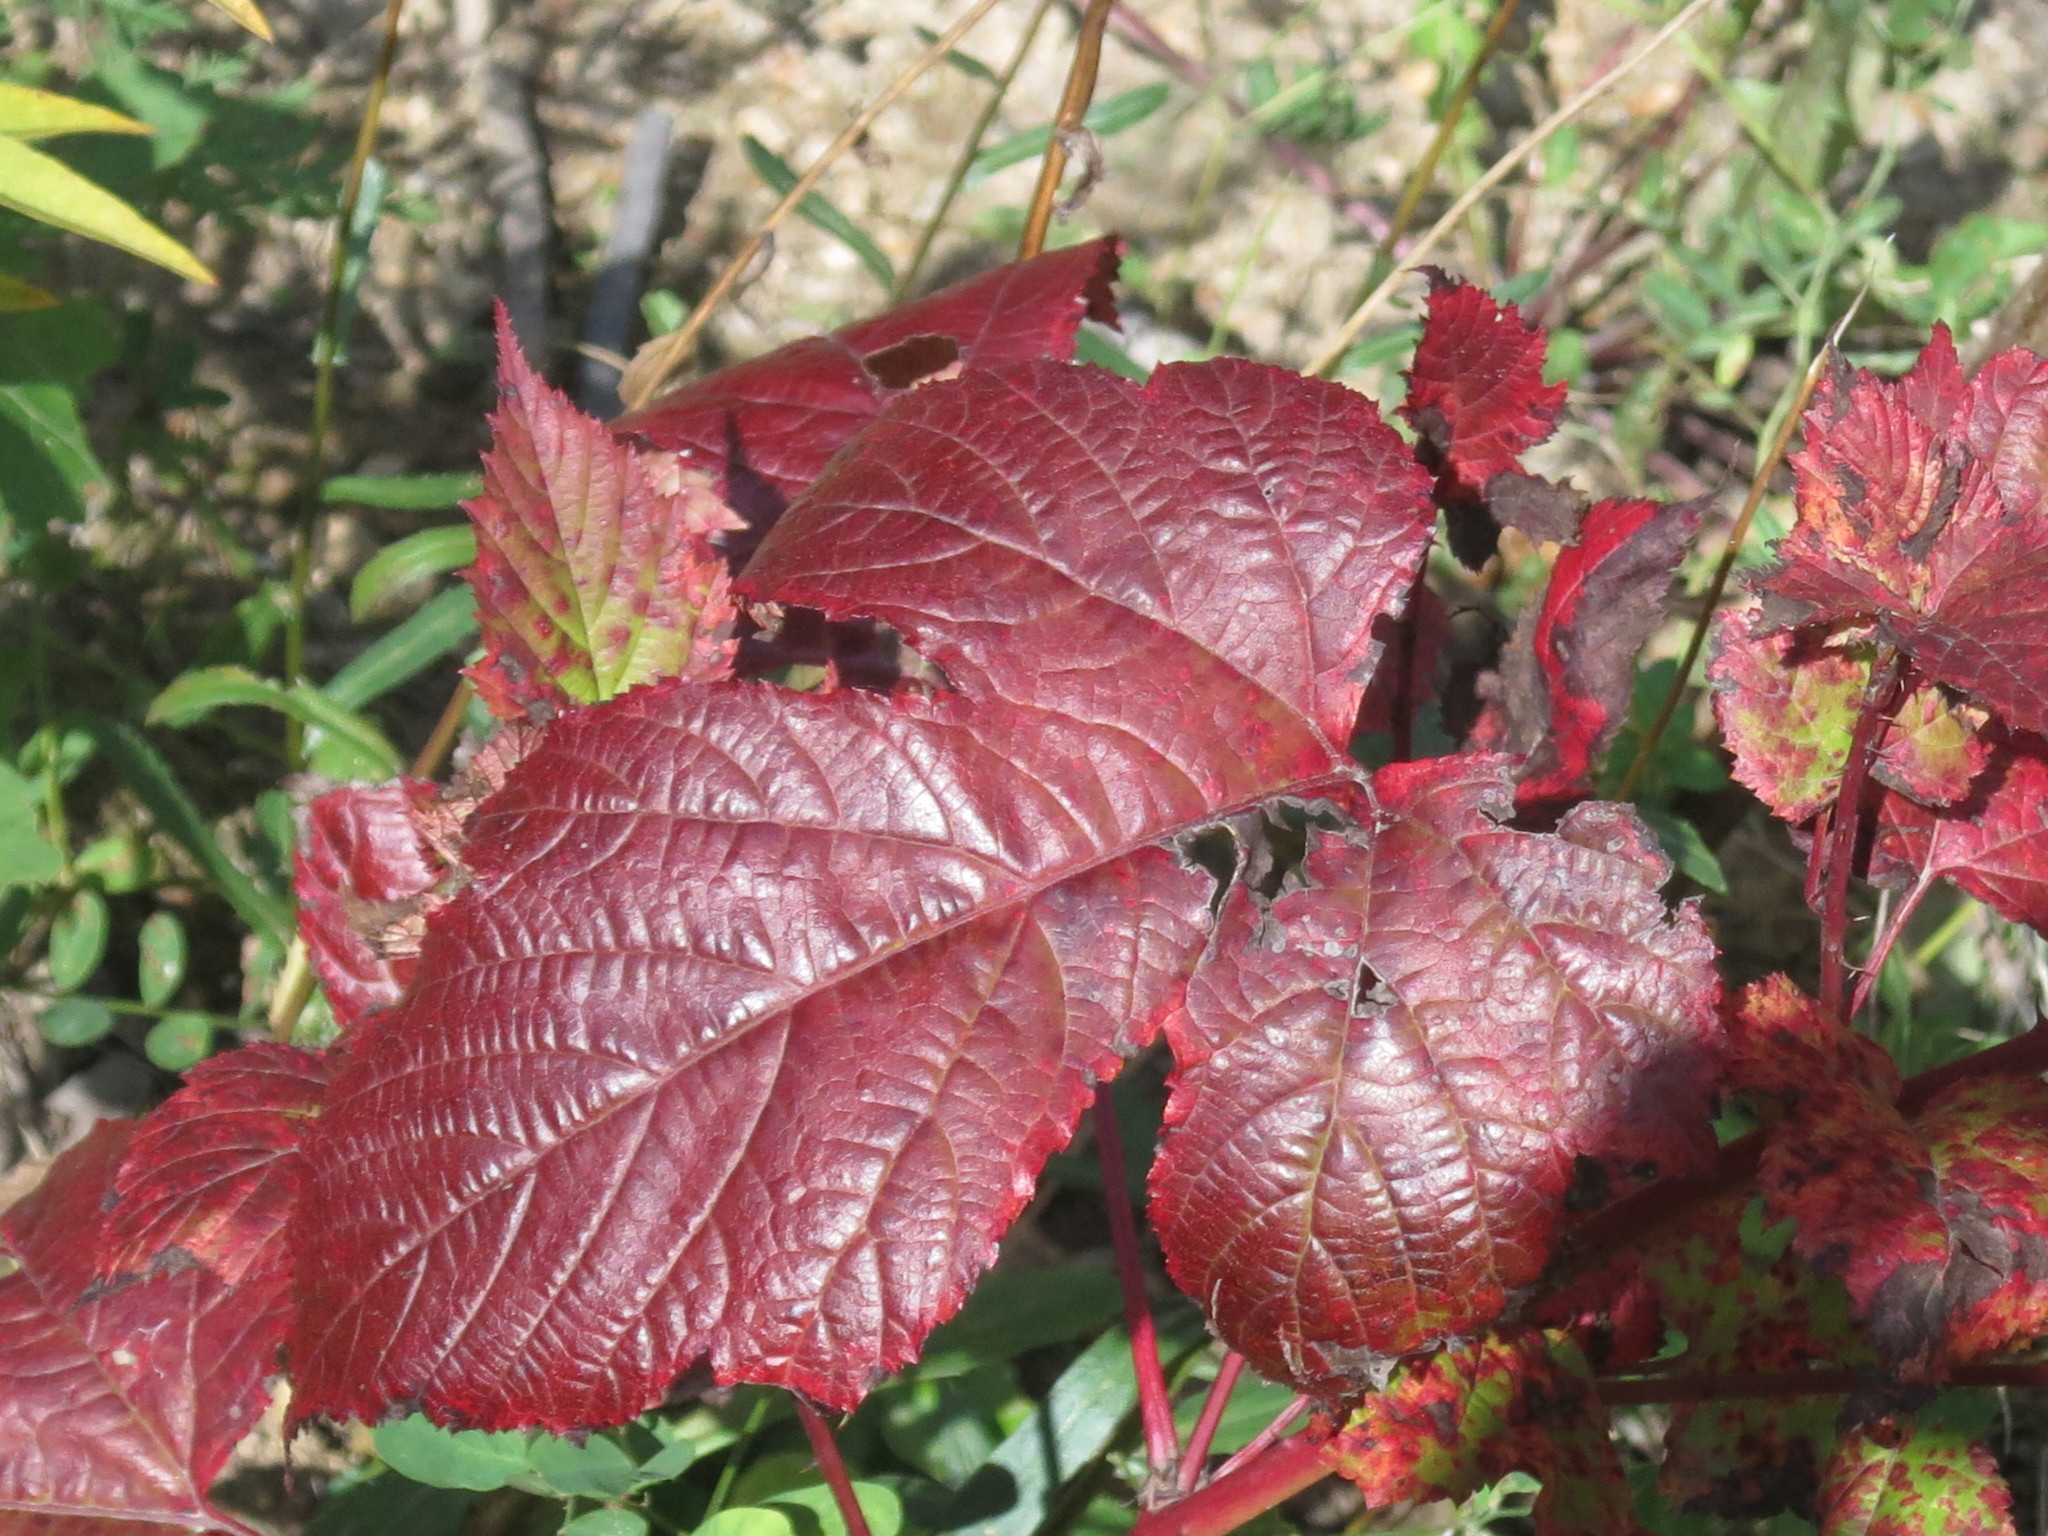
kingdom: Plantae
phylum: Tracheophyta
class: Magnoliopsida
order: Rosales
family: Rosaceae
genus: Rubus
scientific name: Rubus crataegifolius
